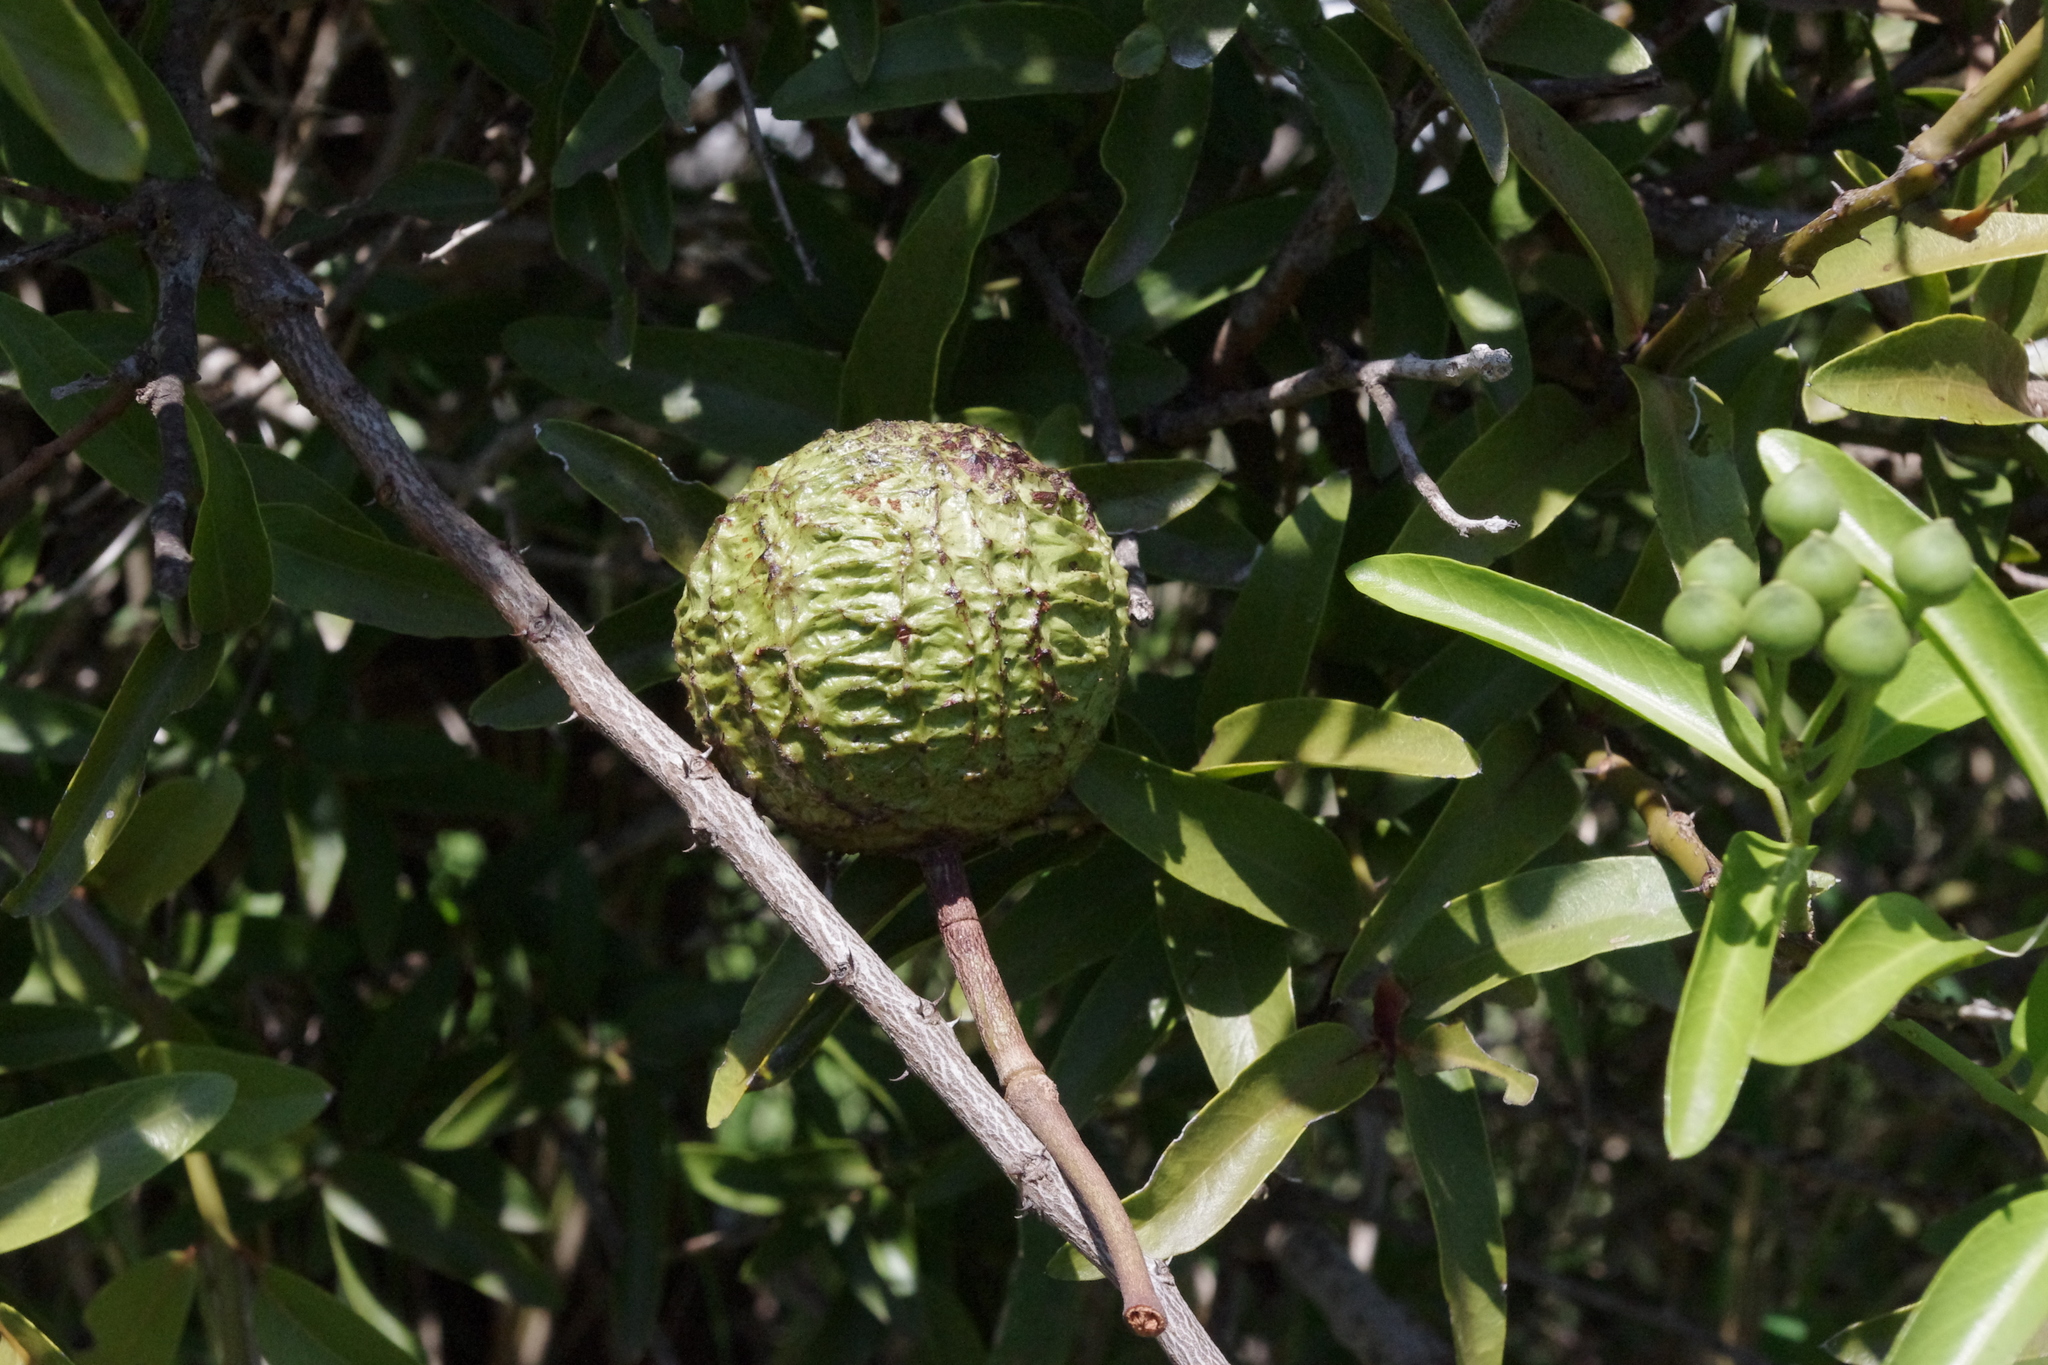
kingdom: Plantae
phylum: Tracheophyta
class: Magnoliopsida
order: Brassicales
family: Capparaceae
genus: Capparis
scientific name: Capparis loranthifolia
